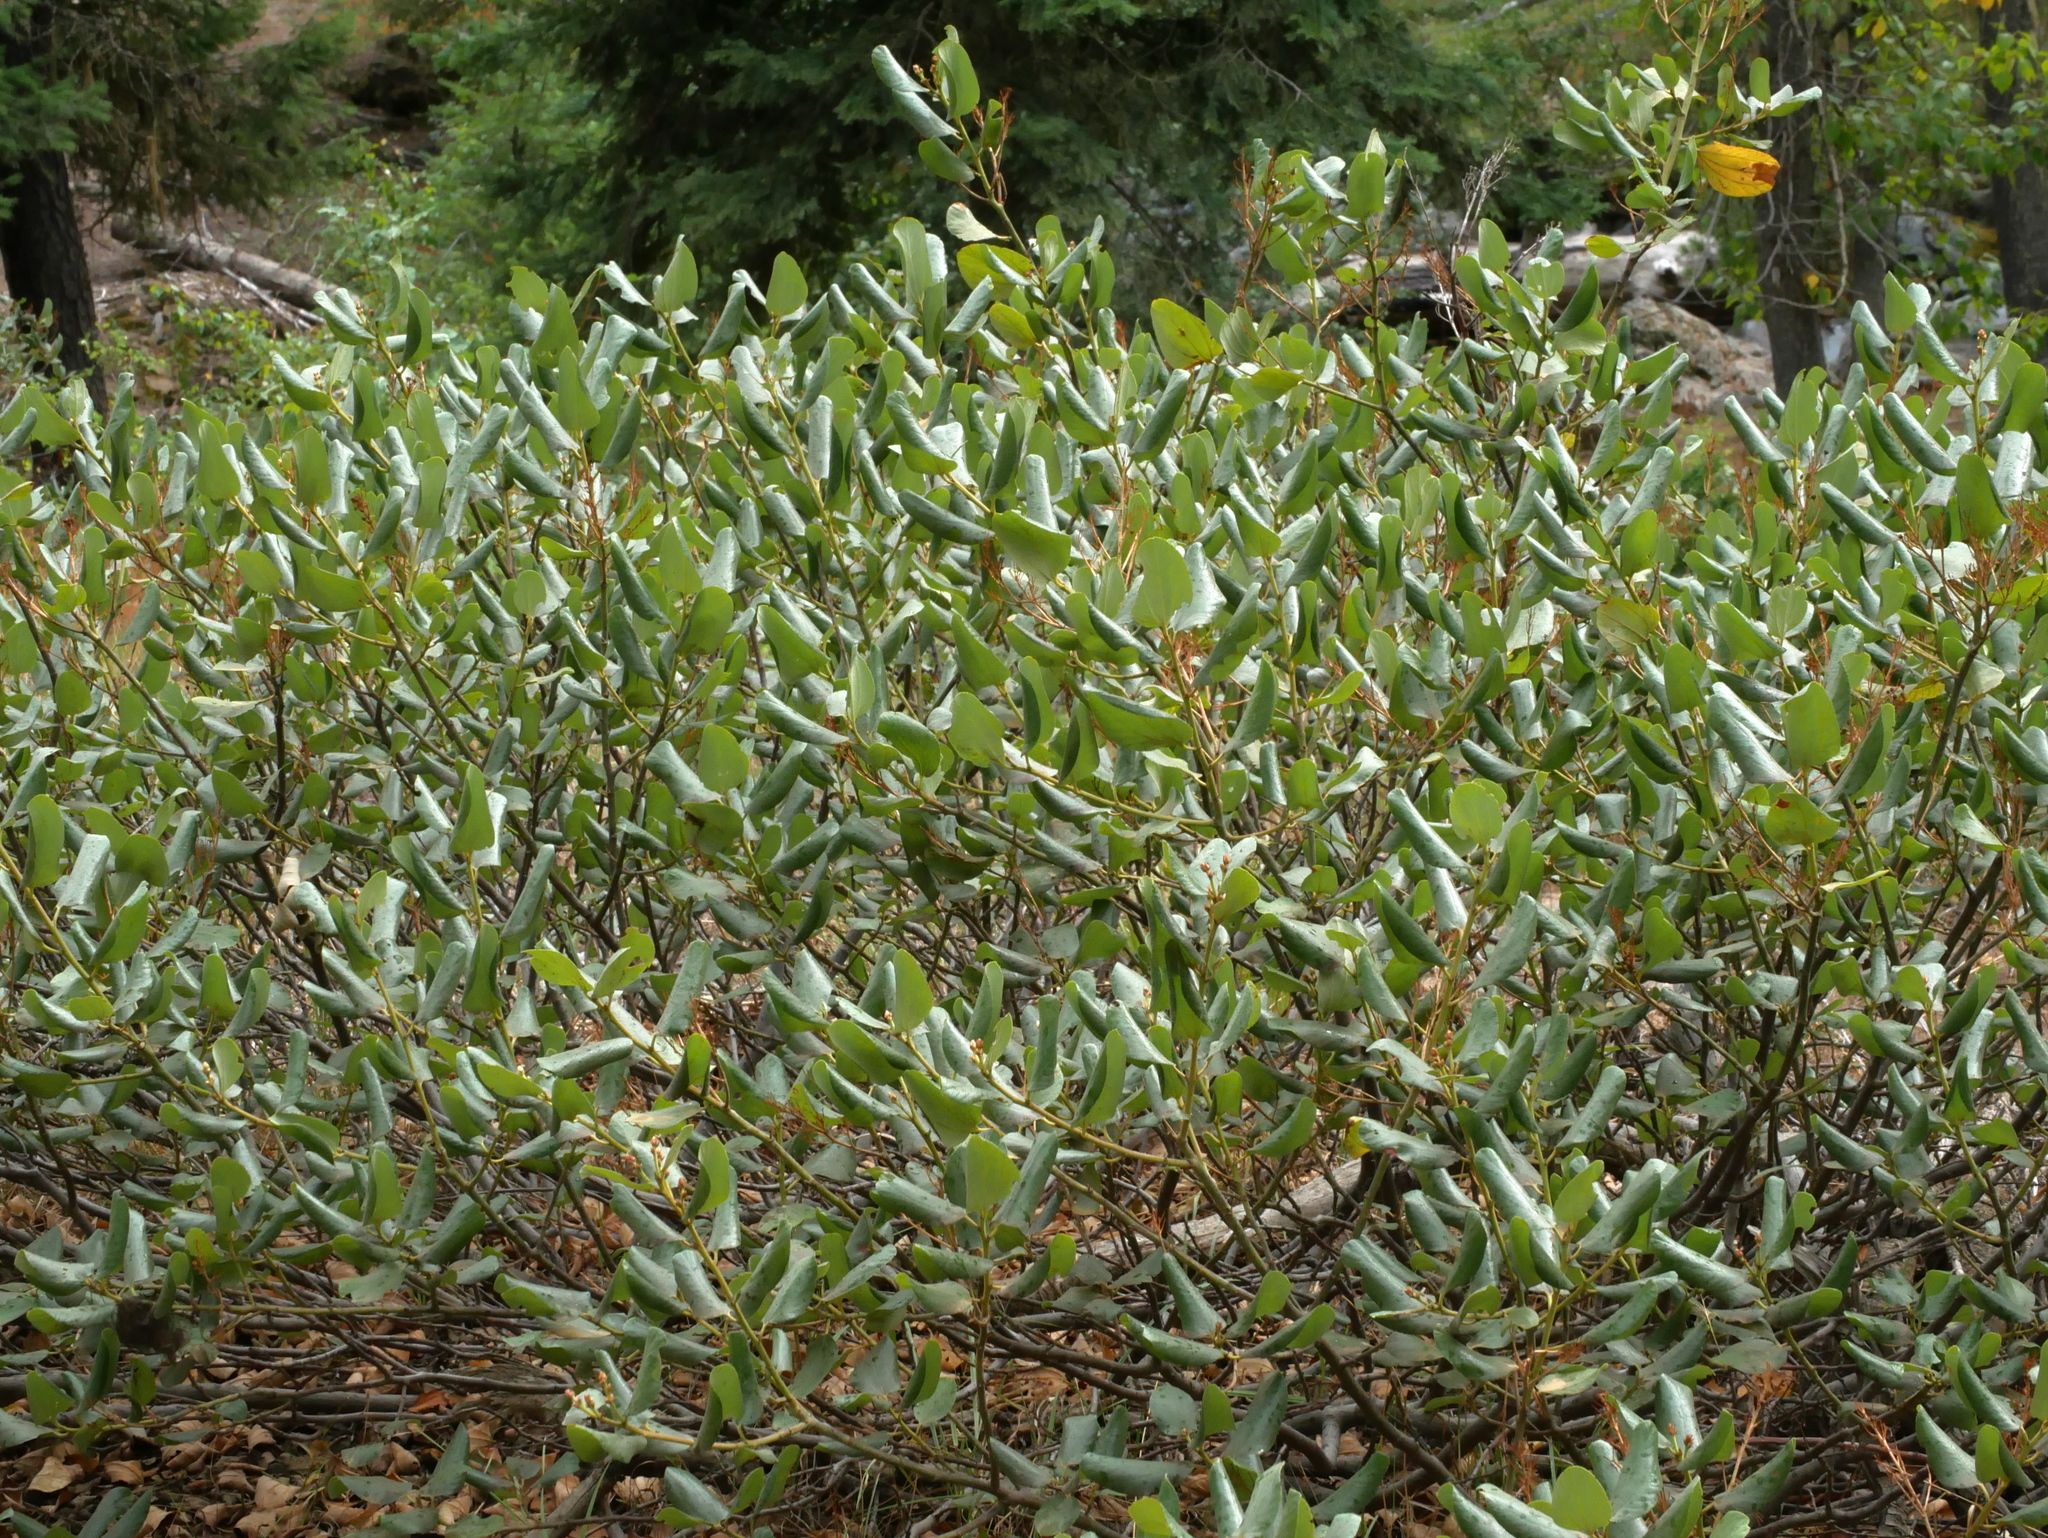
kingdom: Plantae
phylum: Tracheophyta
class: Magnoliopsida
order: Rosales
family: Rhamnaceae
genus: Ceanothus
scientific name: Ceanothus velutinus
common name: Snowbrush
